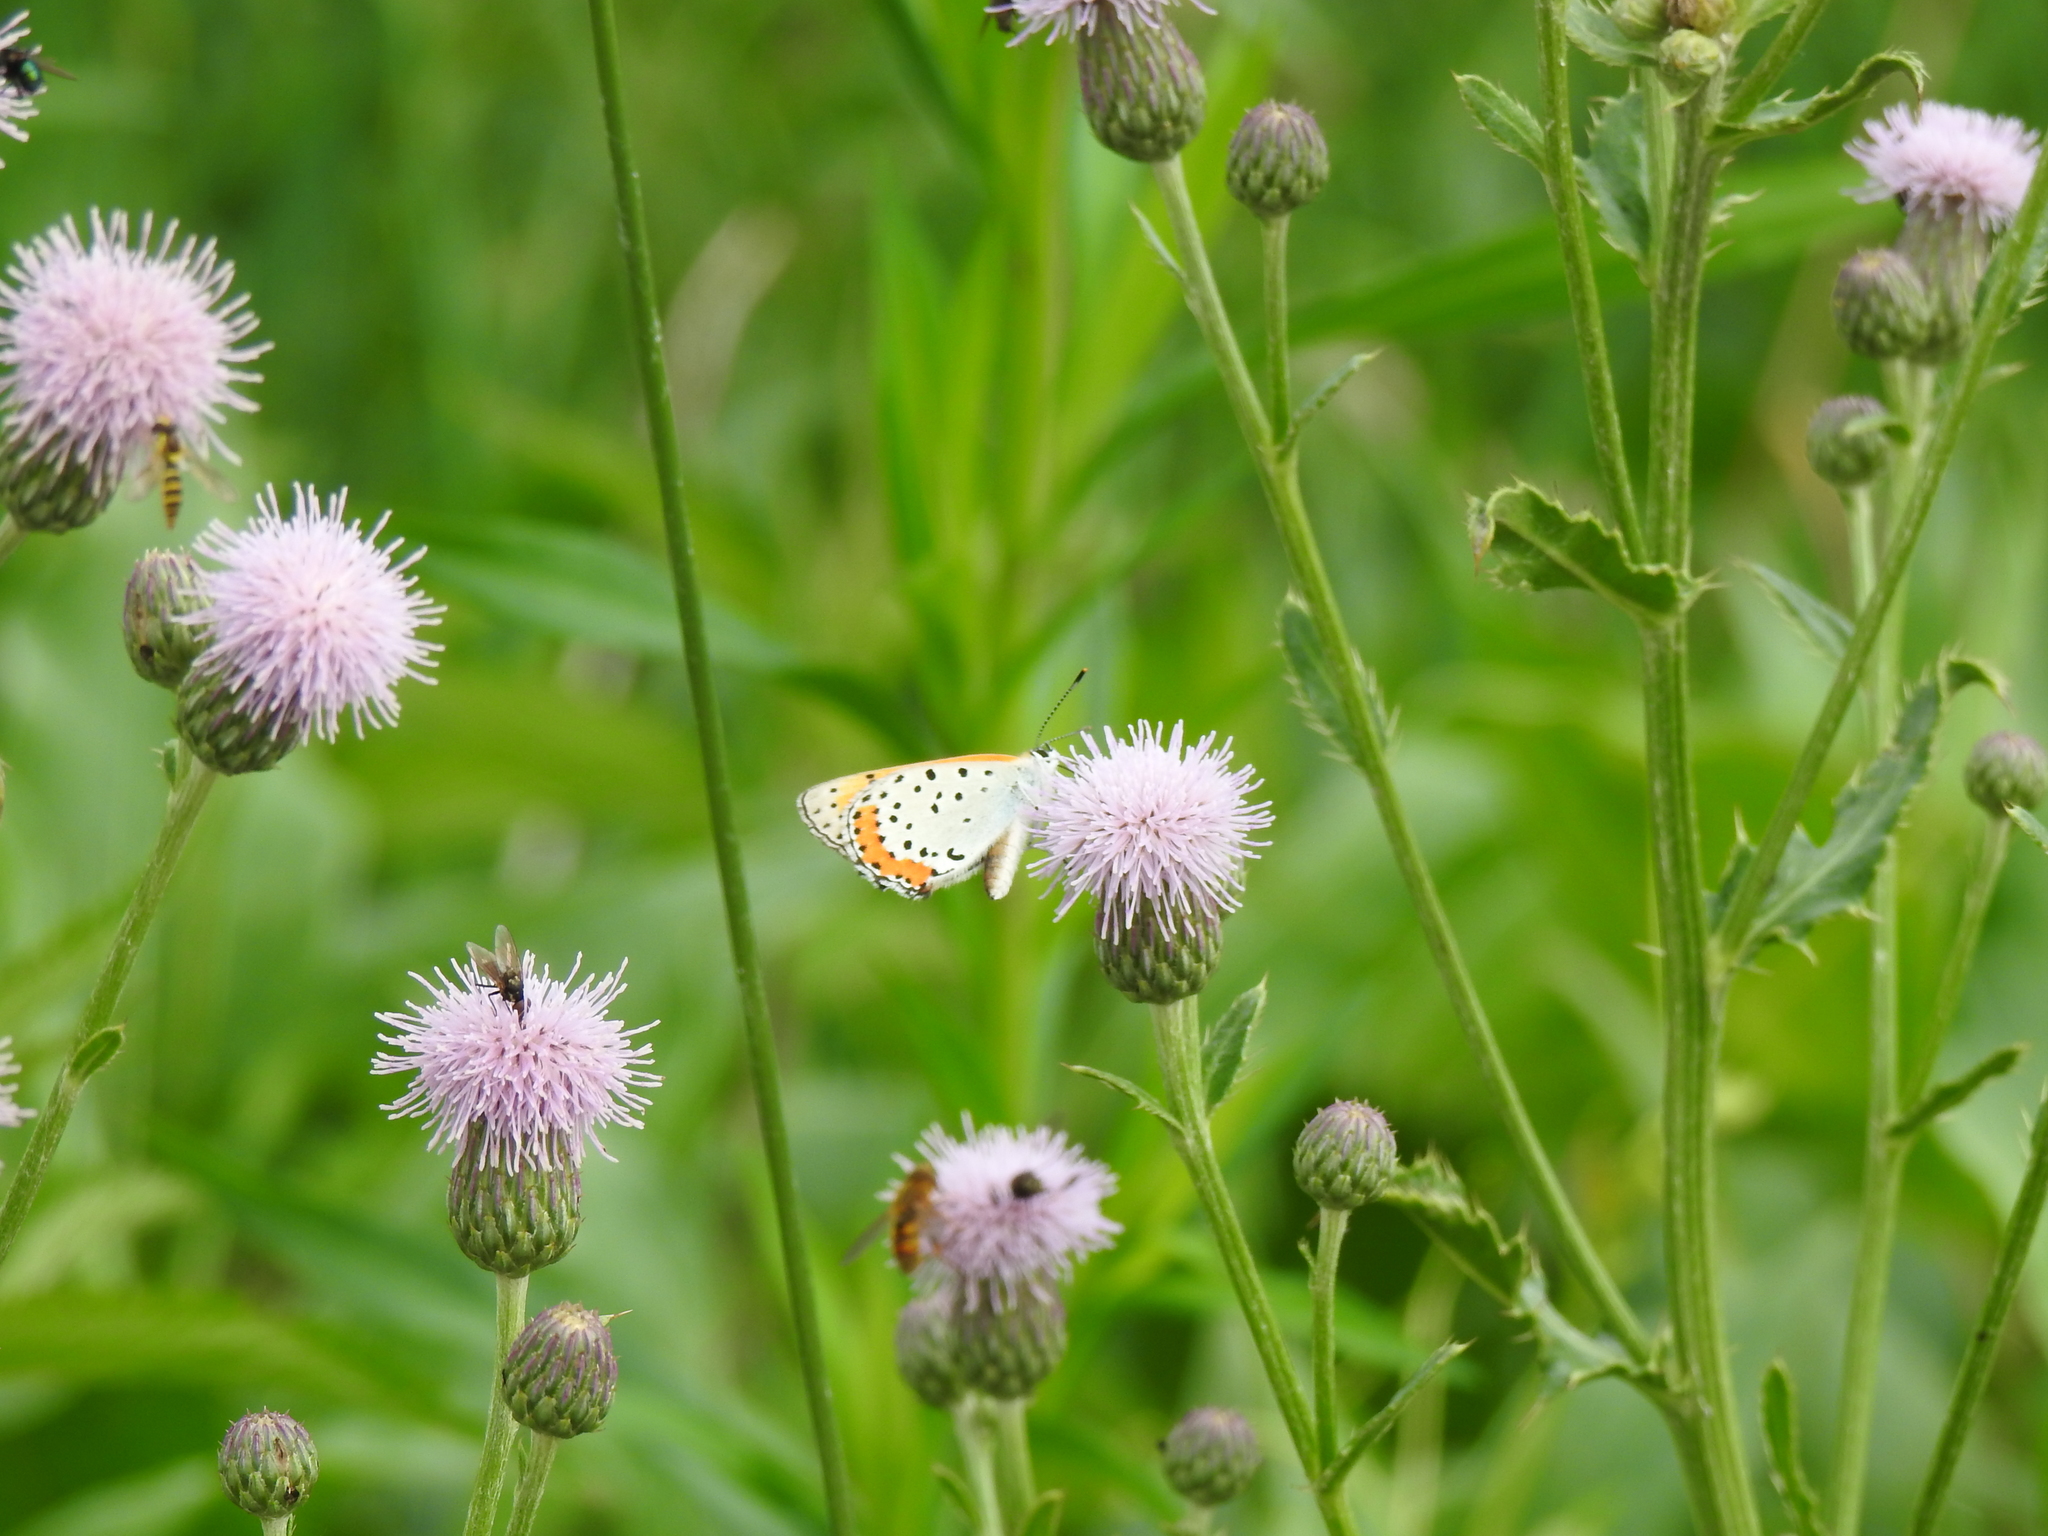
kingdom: Animalia
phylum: Arthropoda
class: Insecta
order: Lepidoptera
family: Lycaenidae
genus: Tharsalea
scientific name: Tharsalea hyllus
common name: Bronze copper
